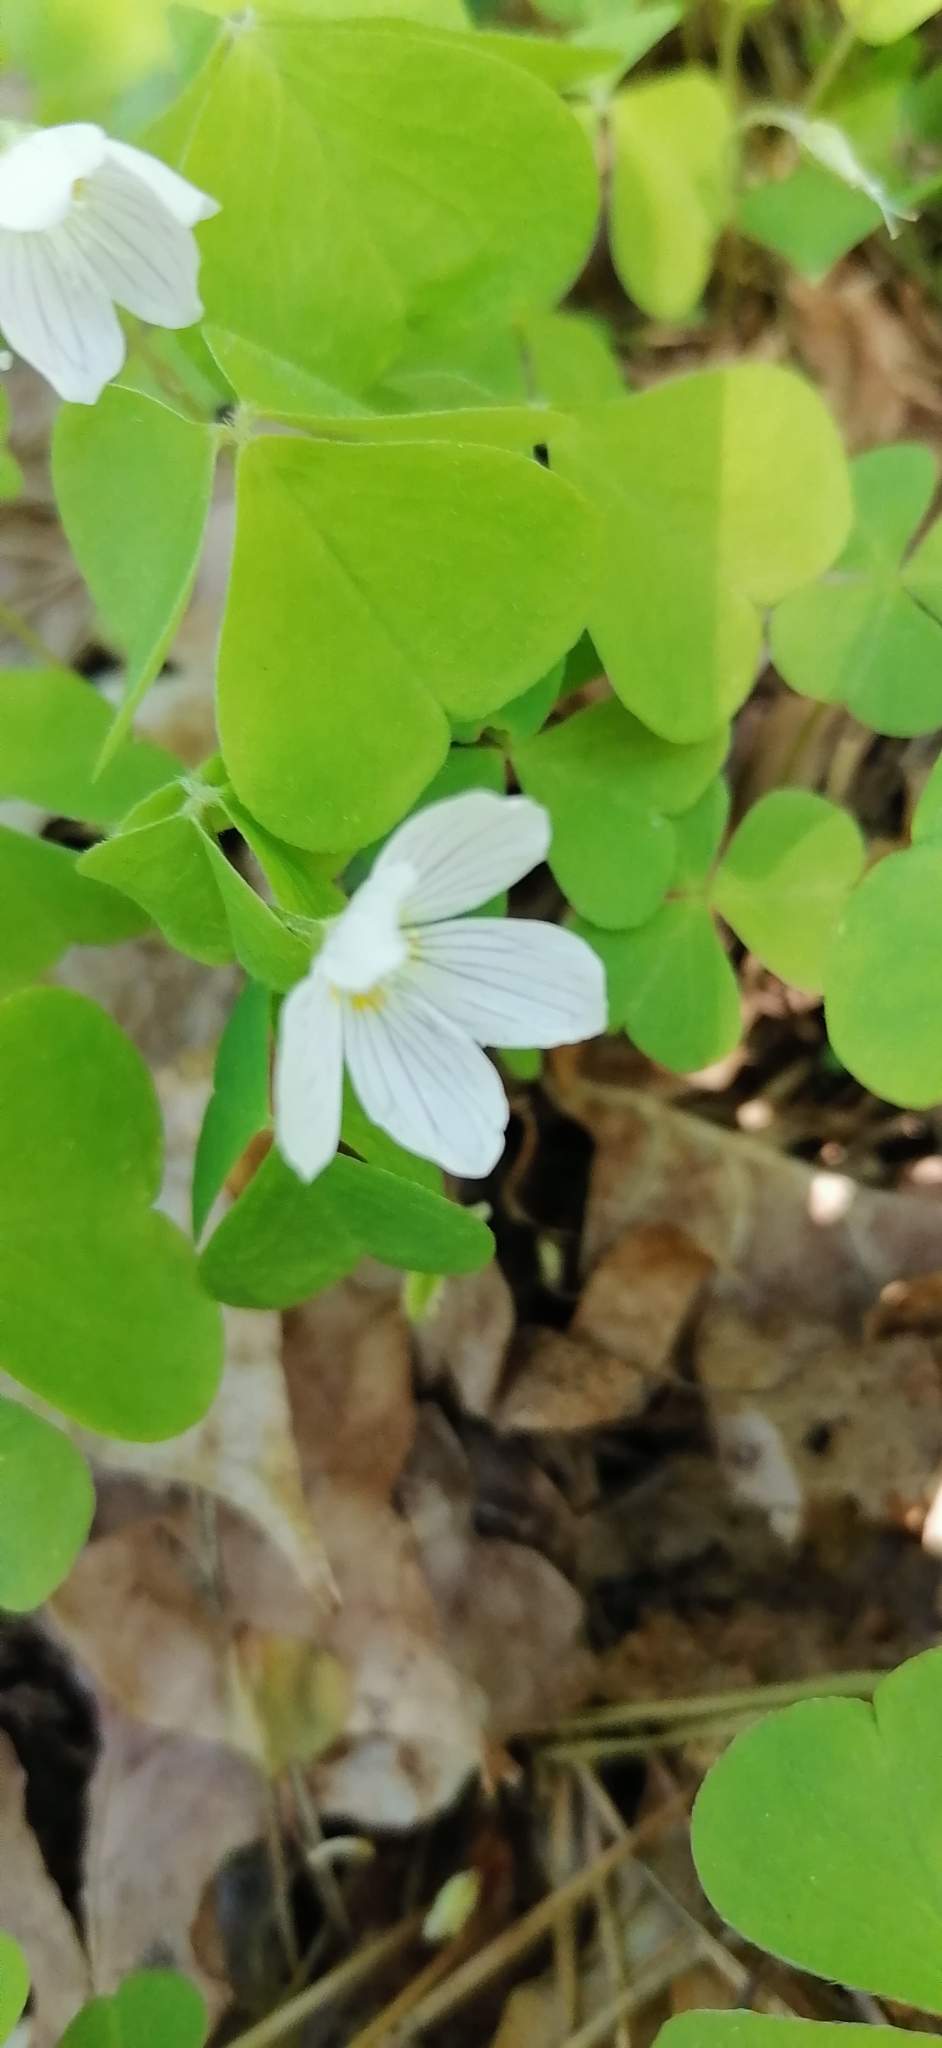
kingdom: Plantae
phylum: Tracheophyta
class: Magnoliopsida
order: Oxalidales
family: Oxalidaceae
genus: Oxalis
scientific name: Oxalis acetosella
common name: Wood-sorrel
